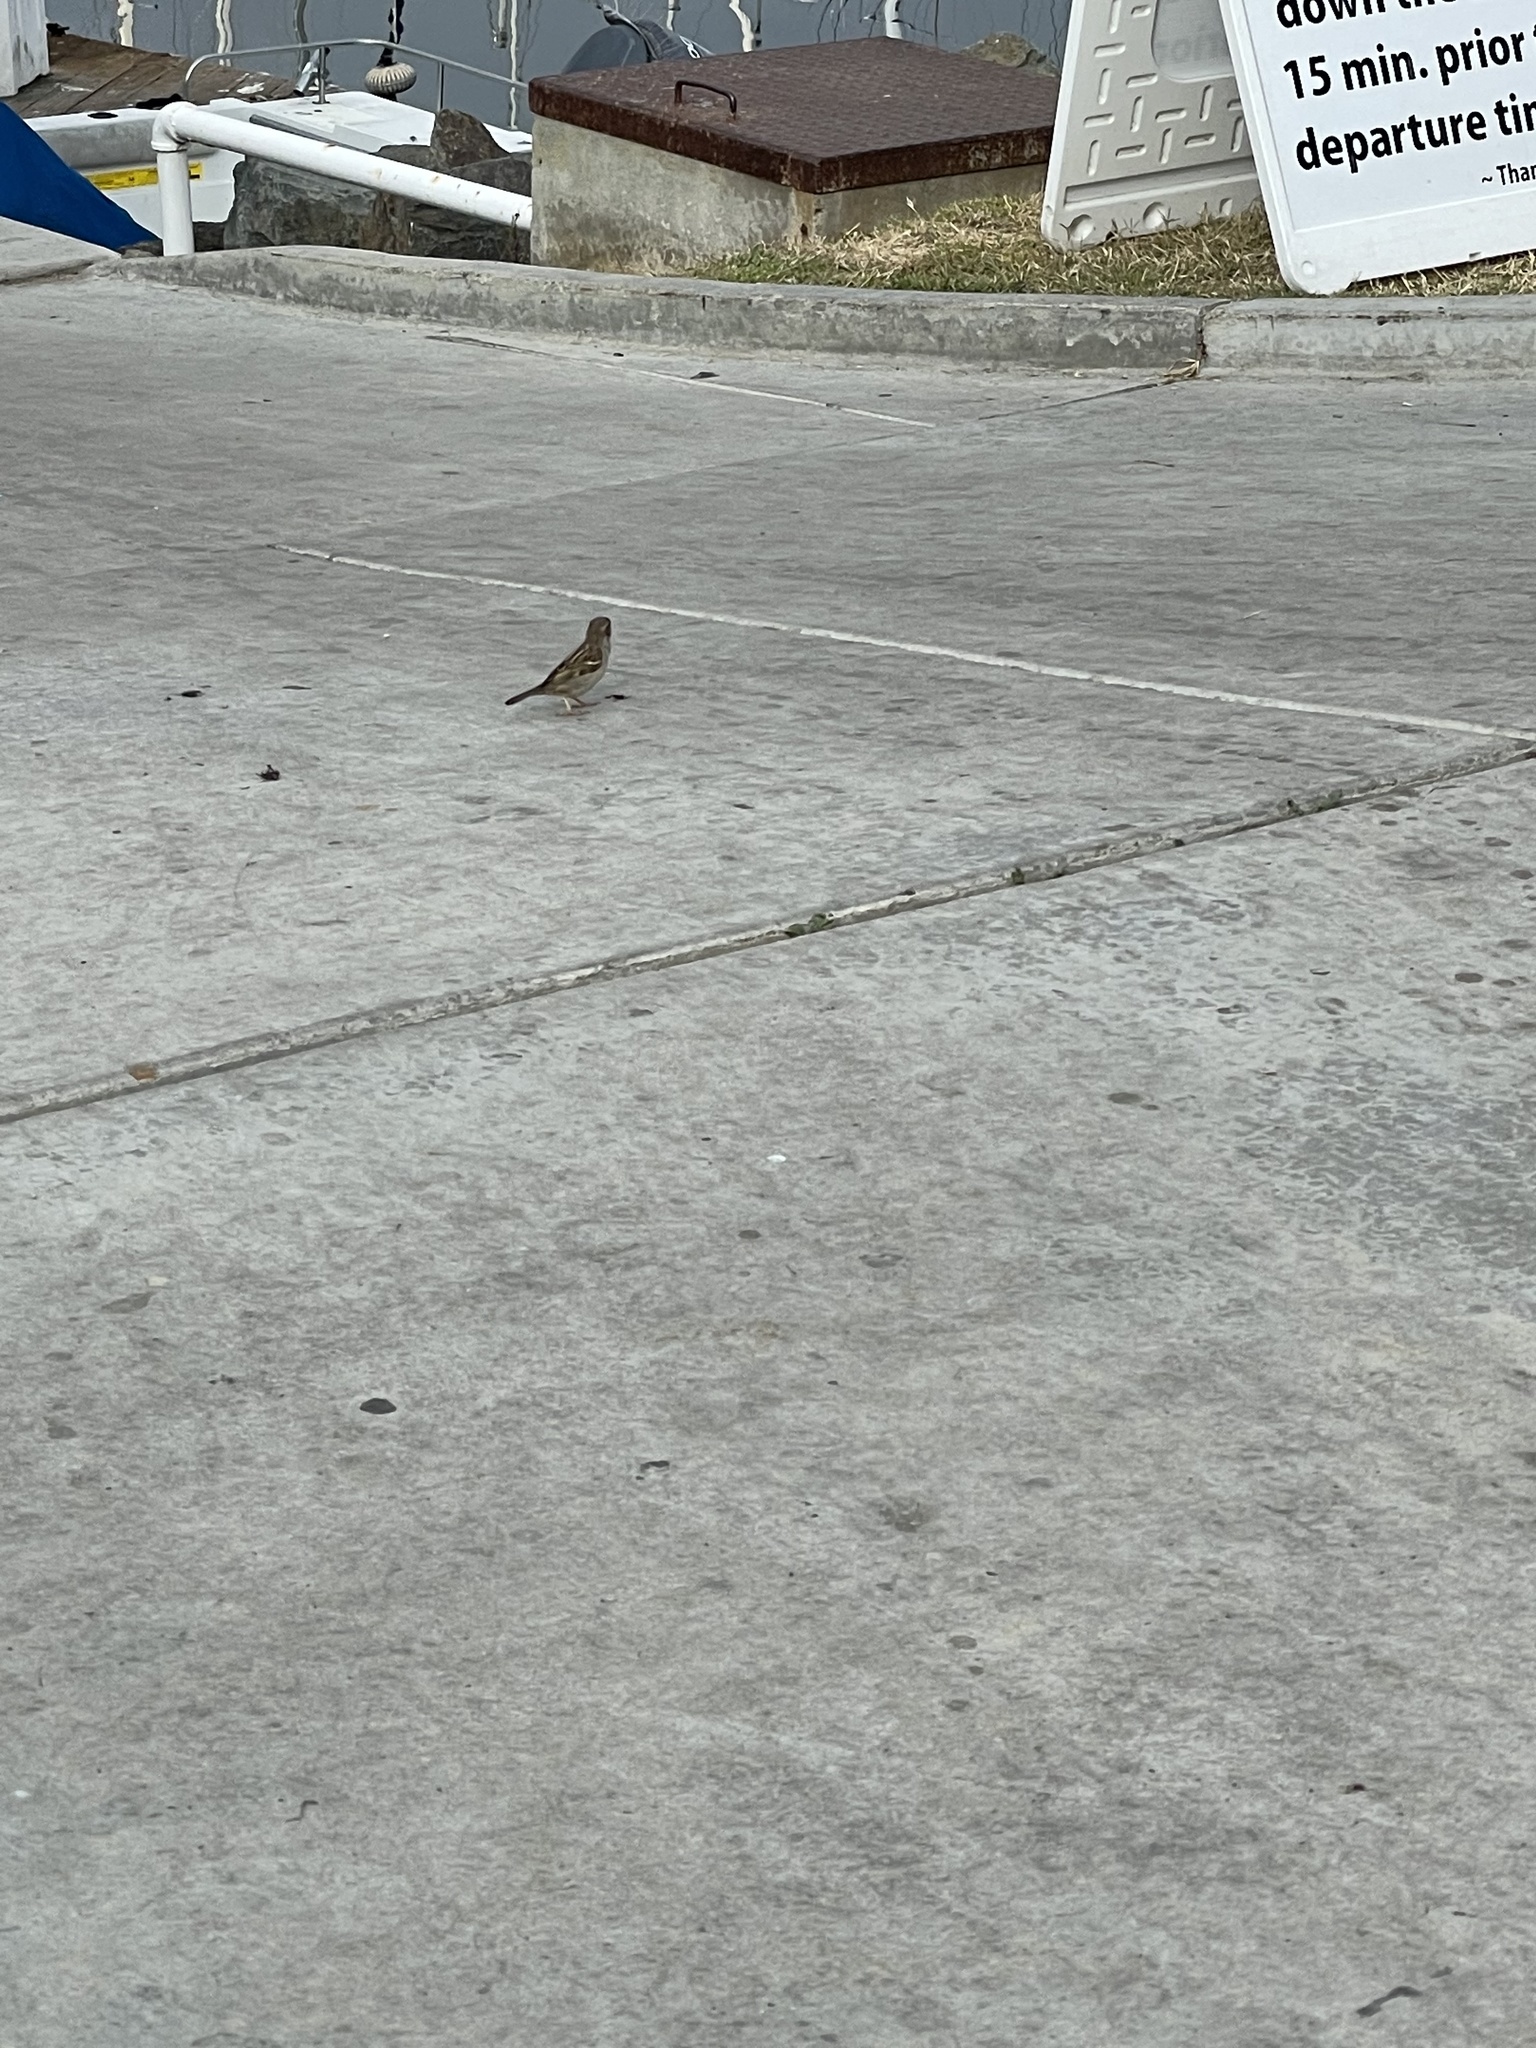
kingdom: Animalia
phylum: Chordata
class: Aves
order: Passeriformes
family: Passeridae
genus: Passer
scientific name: Passer domesticus
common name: House sparrow
